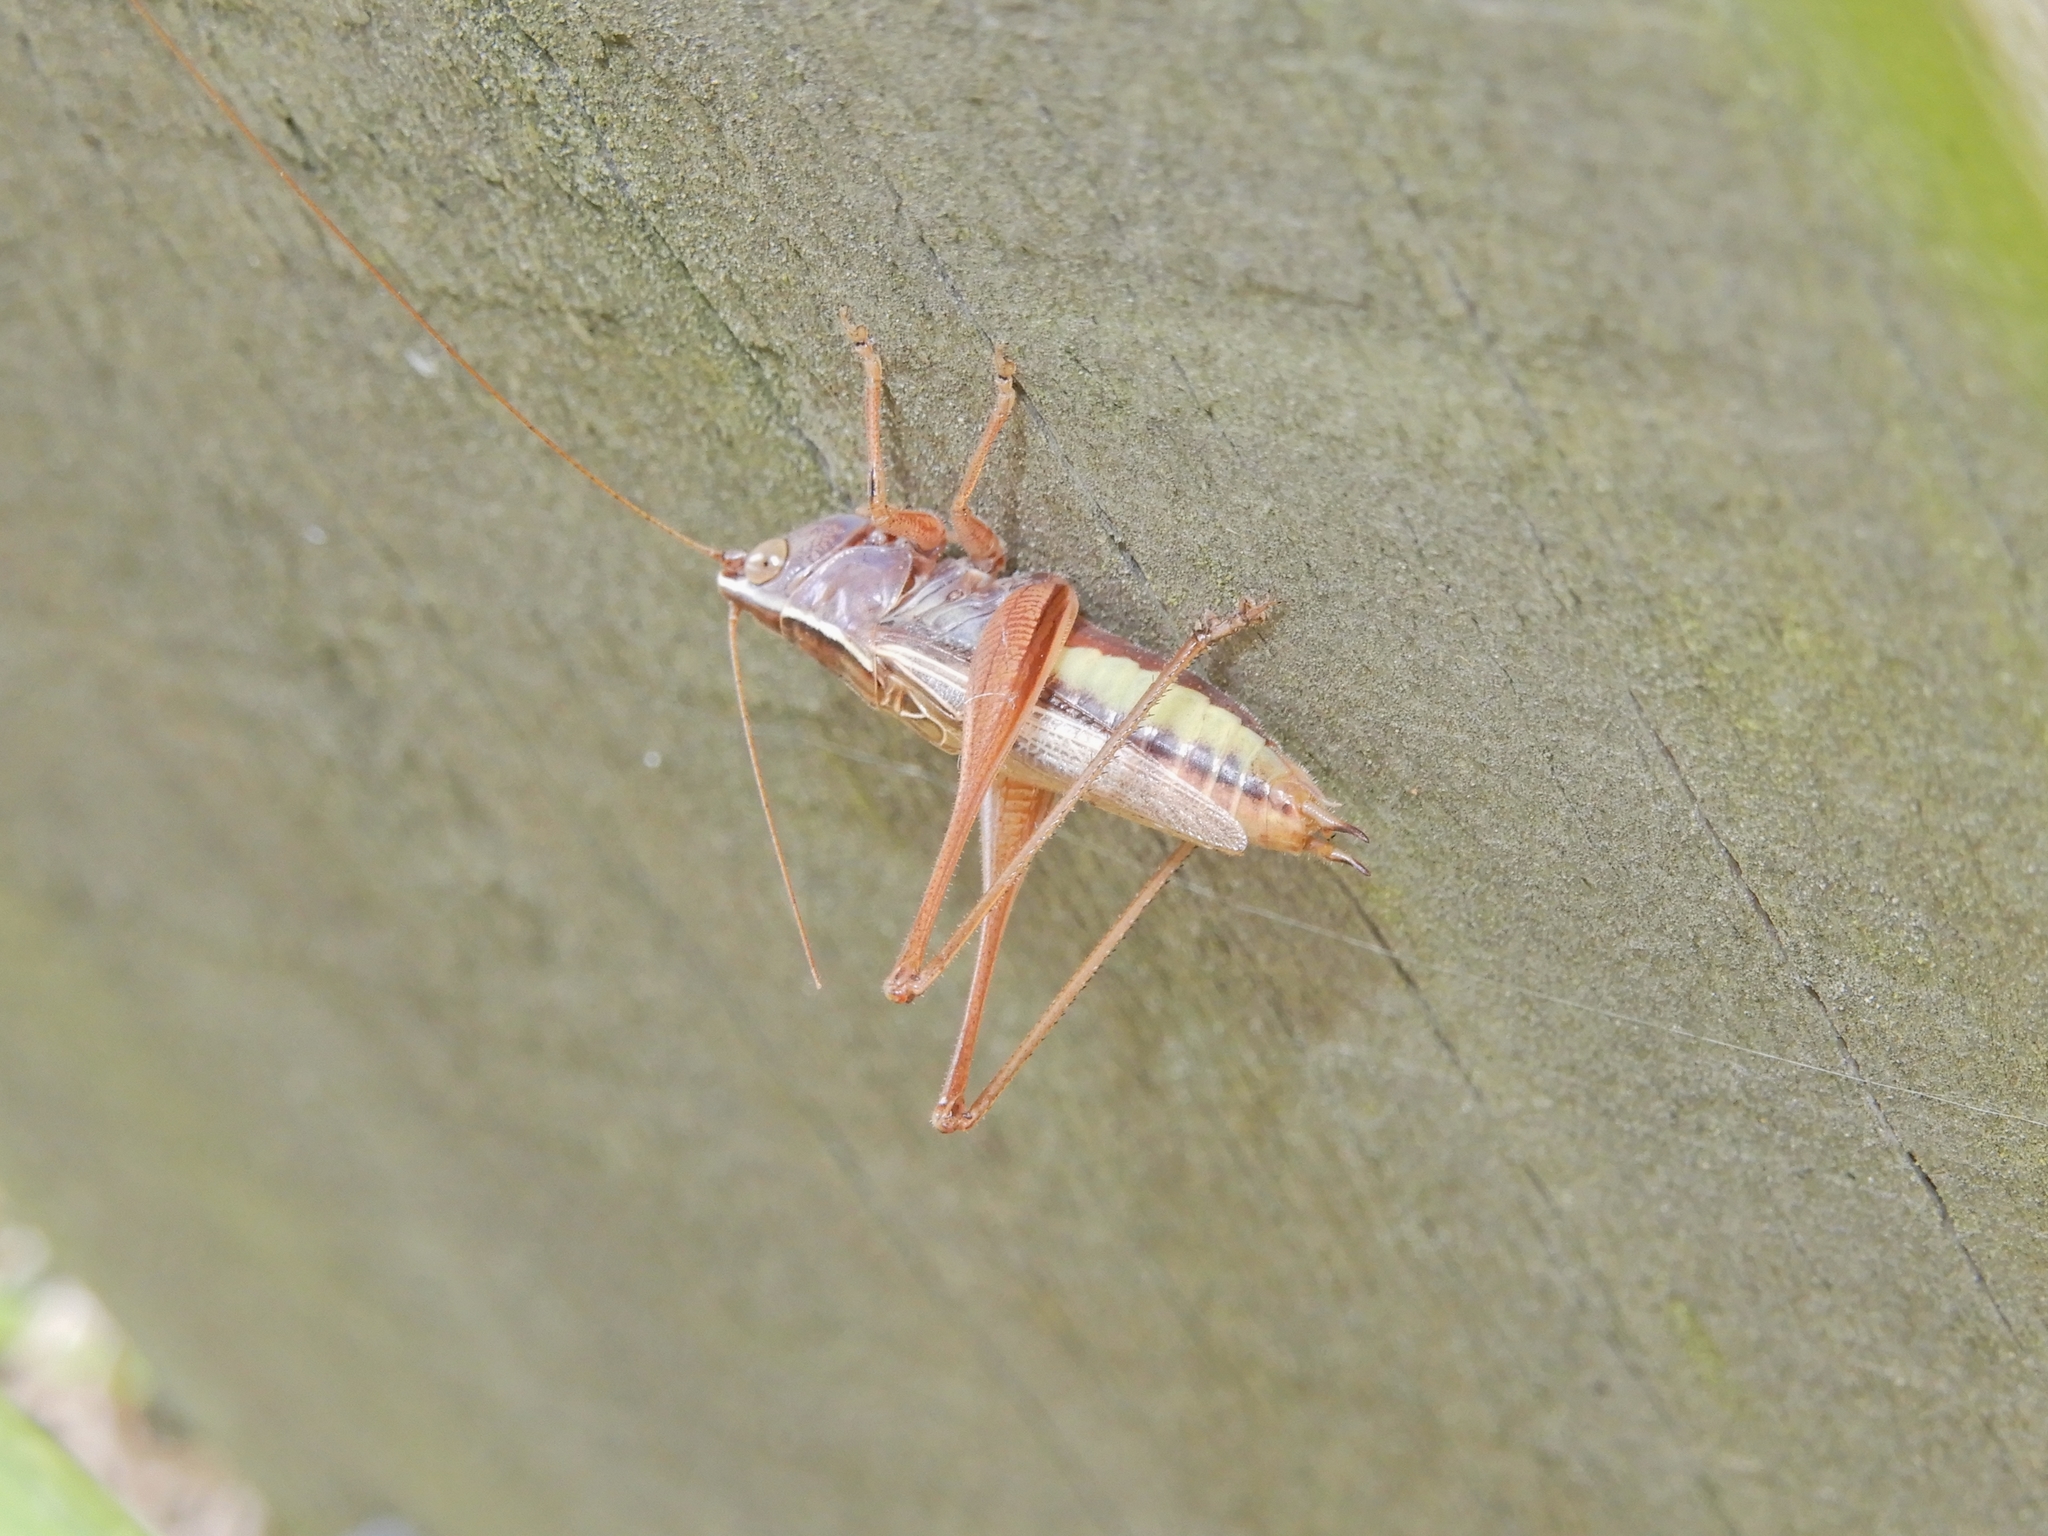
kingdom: Animalia
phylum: Arthropoda
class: Insecta
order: Orthoptera
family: Tettigoniidae
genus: Conocephalus
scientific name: Conocephalus albescens
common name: Whitish meadow katydid
